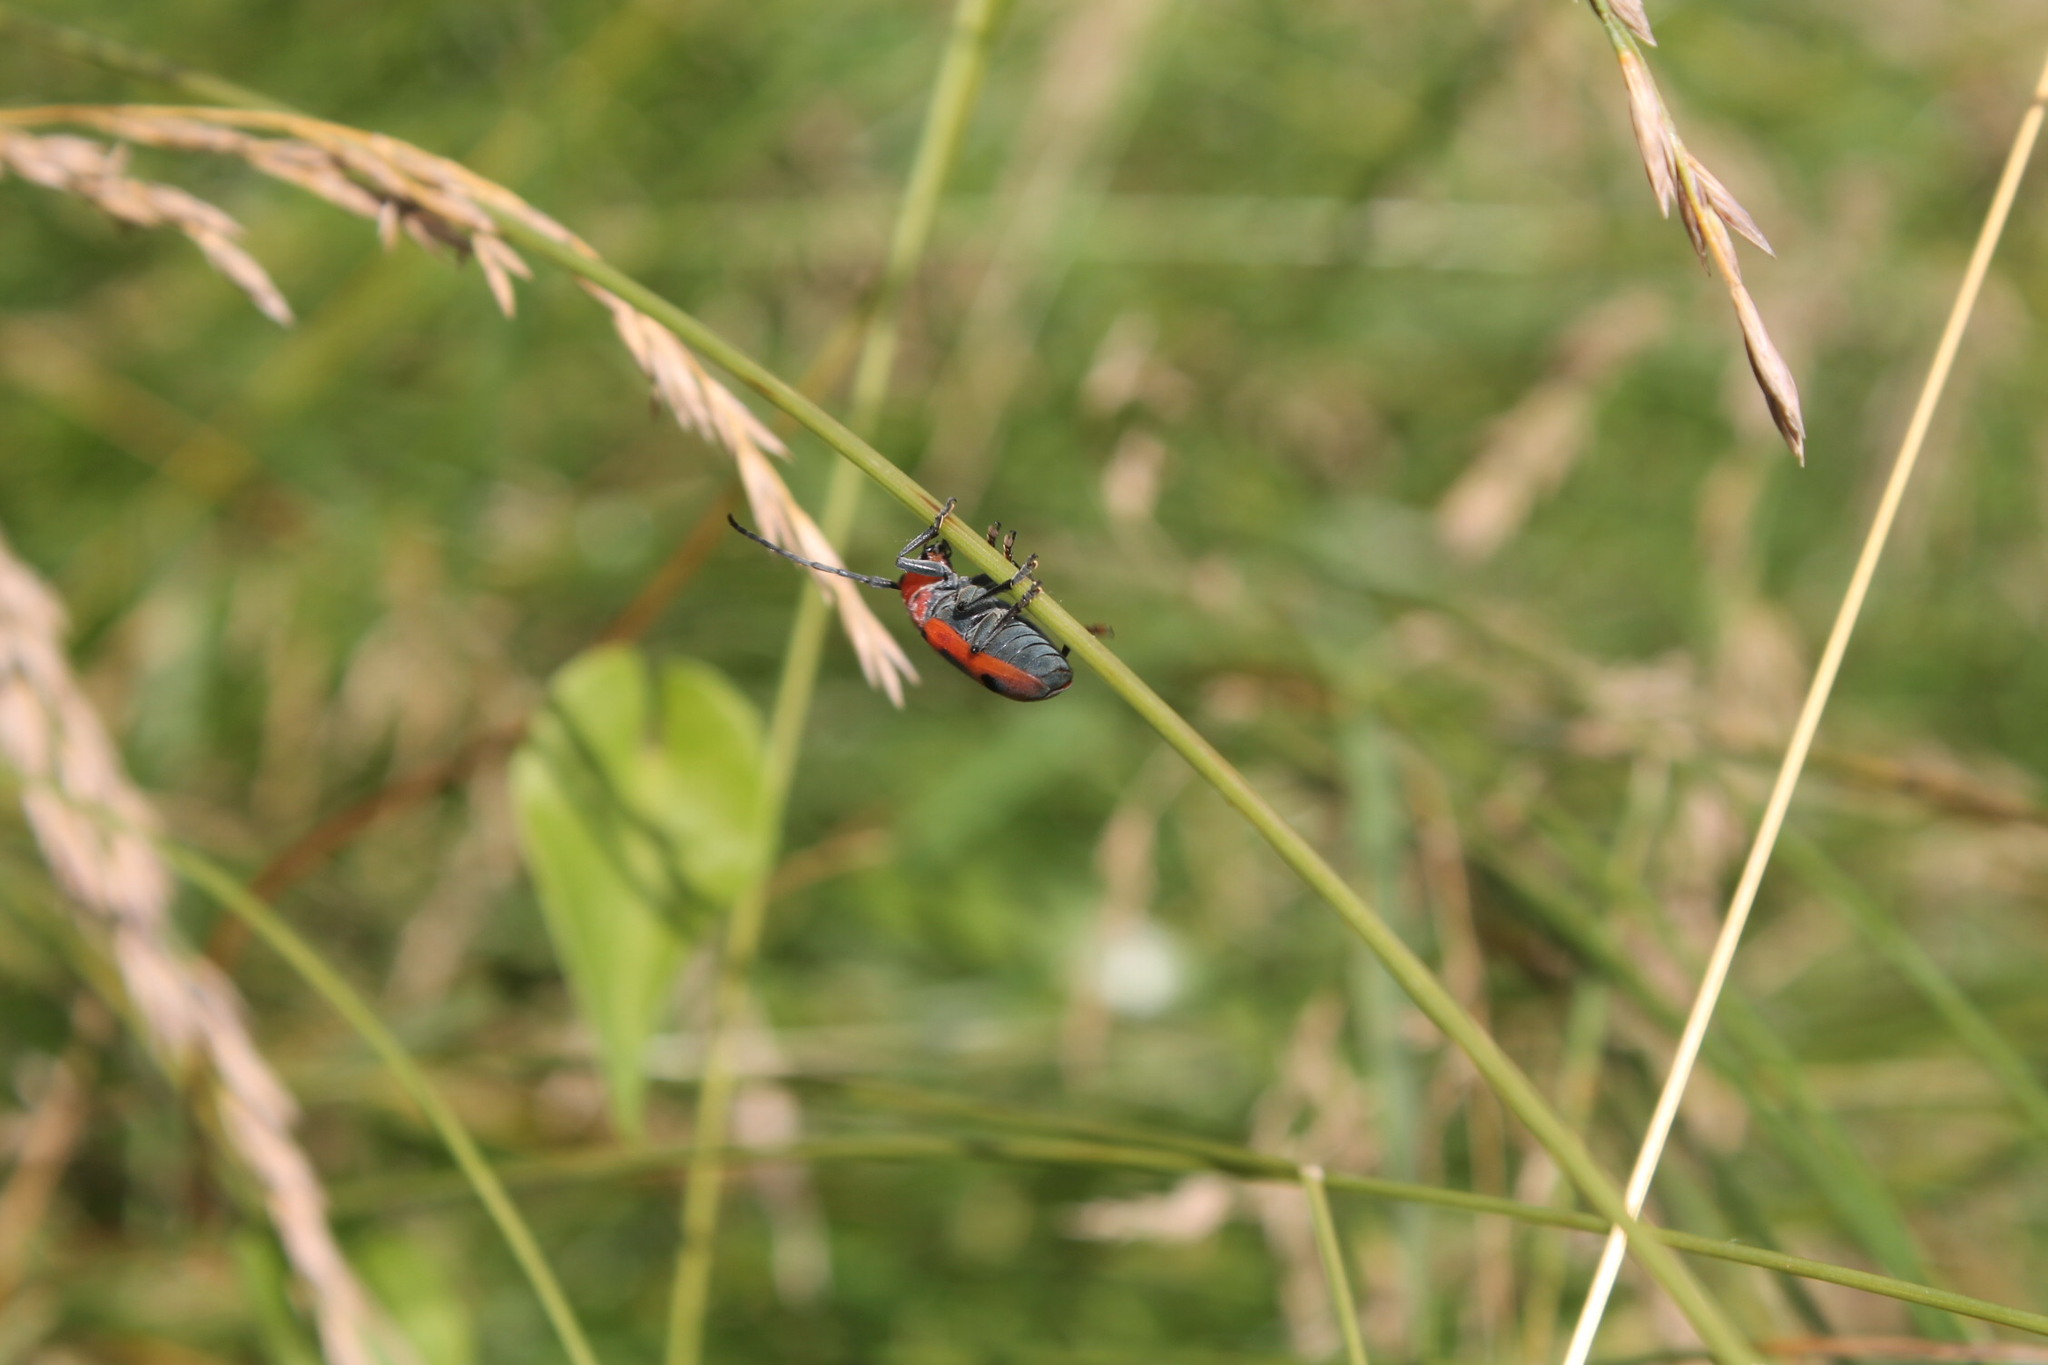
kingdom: Animalia
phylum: Arthropoda
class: Insecta
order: Coleoptera
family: Cerambycidae
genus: Tetraopes
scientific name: Tetraopes tetrophthalmus
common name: Red milkweed beetle
